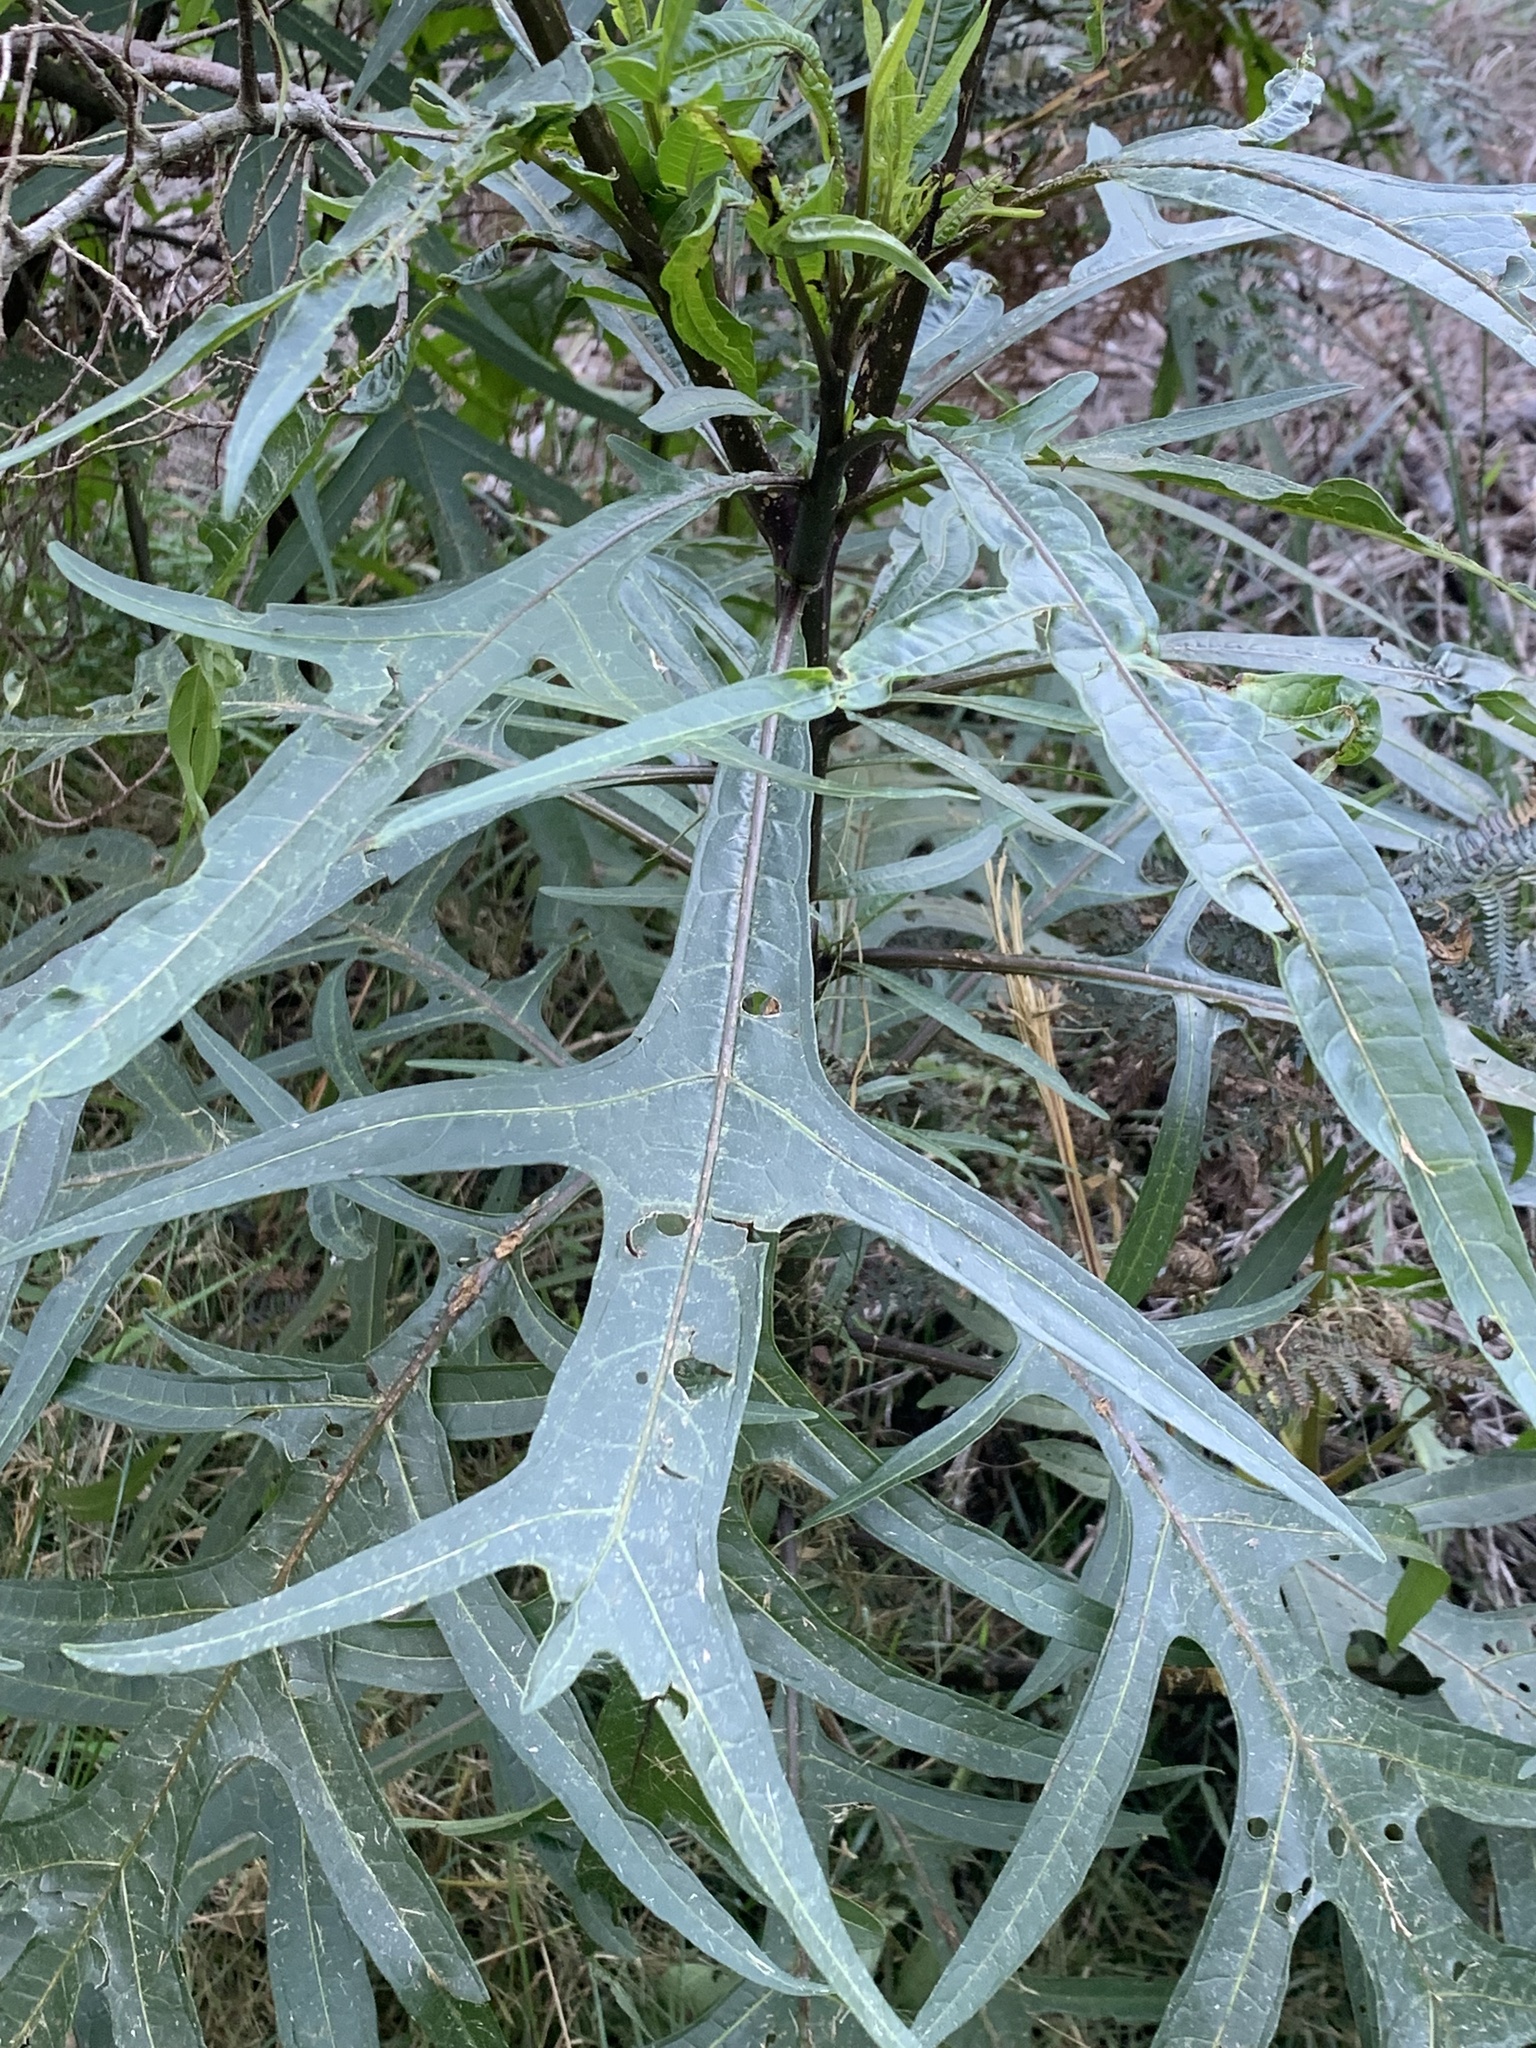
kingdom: Plantae
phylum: Tracheophyta
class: Magnoliopsida
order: Solanales
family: Solanaceae
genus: Solanum
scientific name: Solanum laciniatum
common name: Kangaroo-apple
